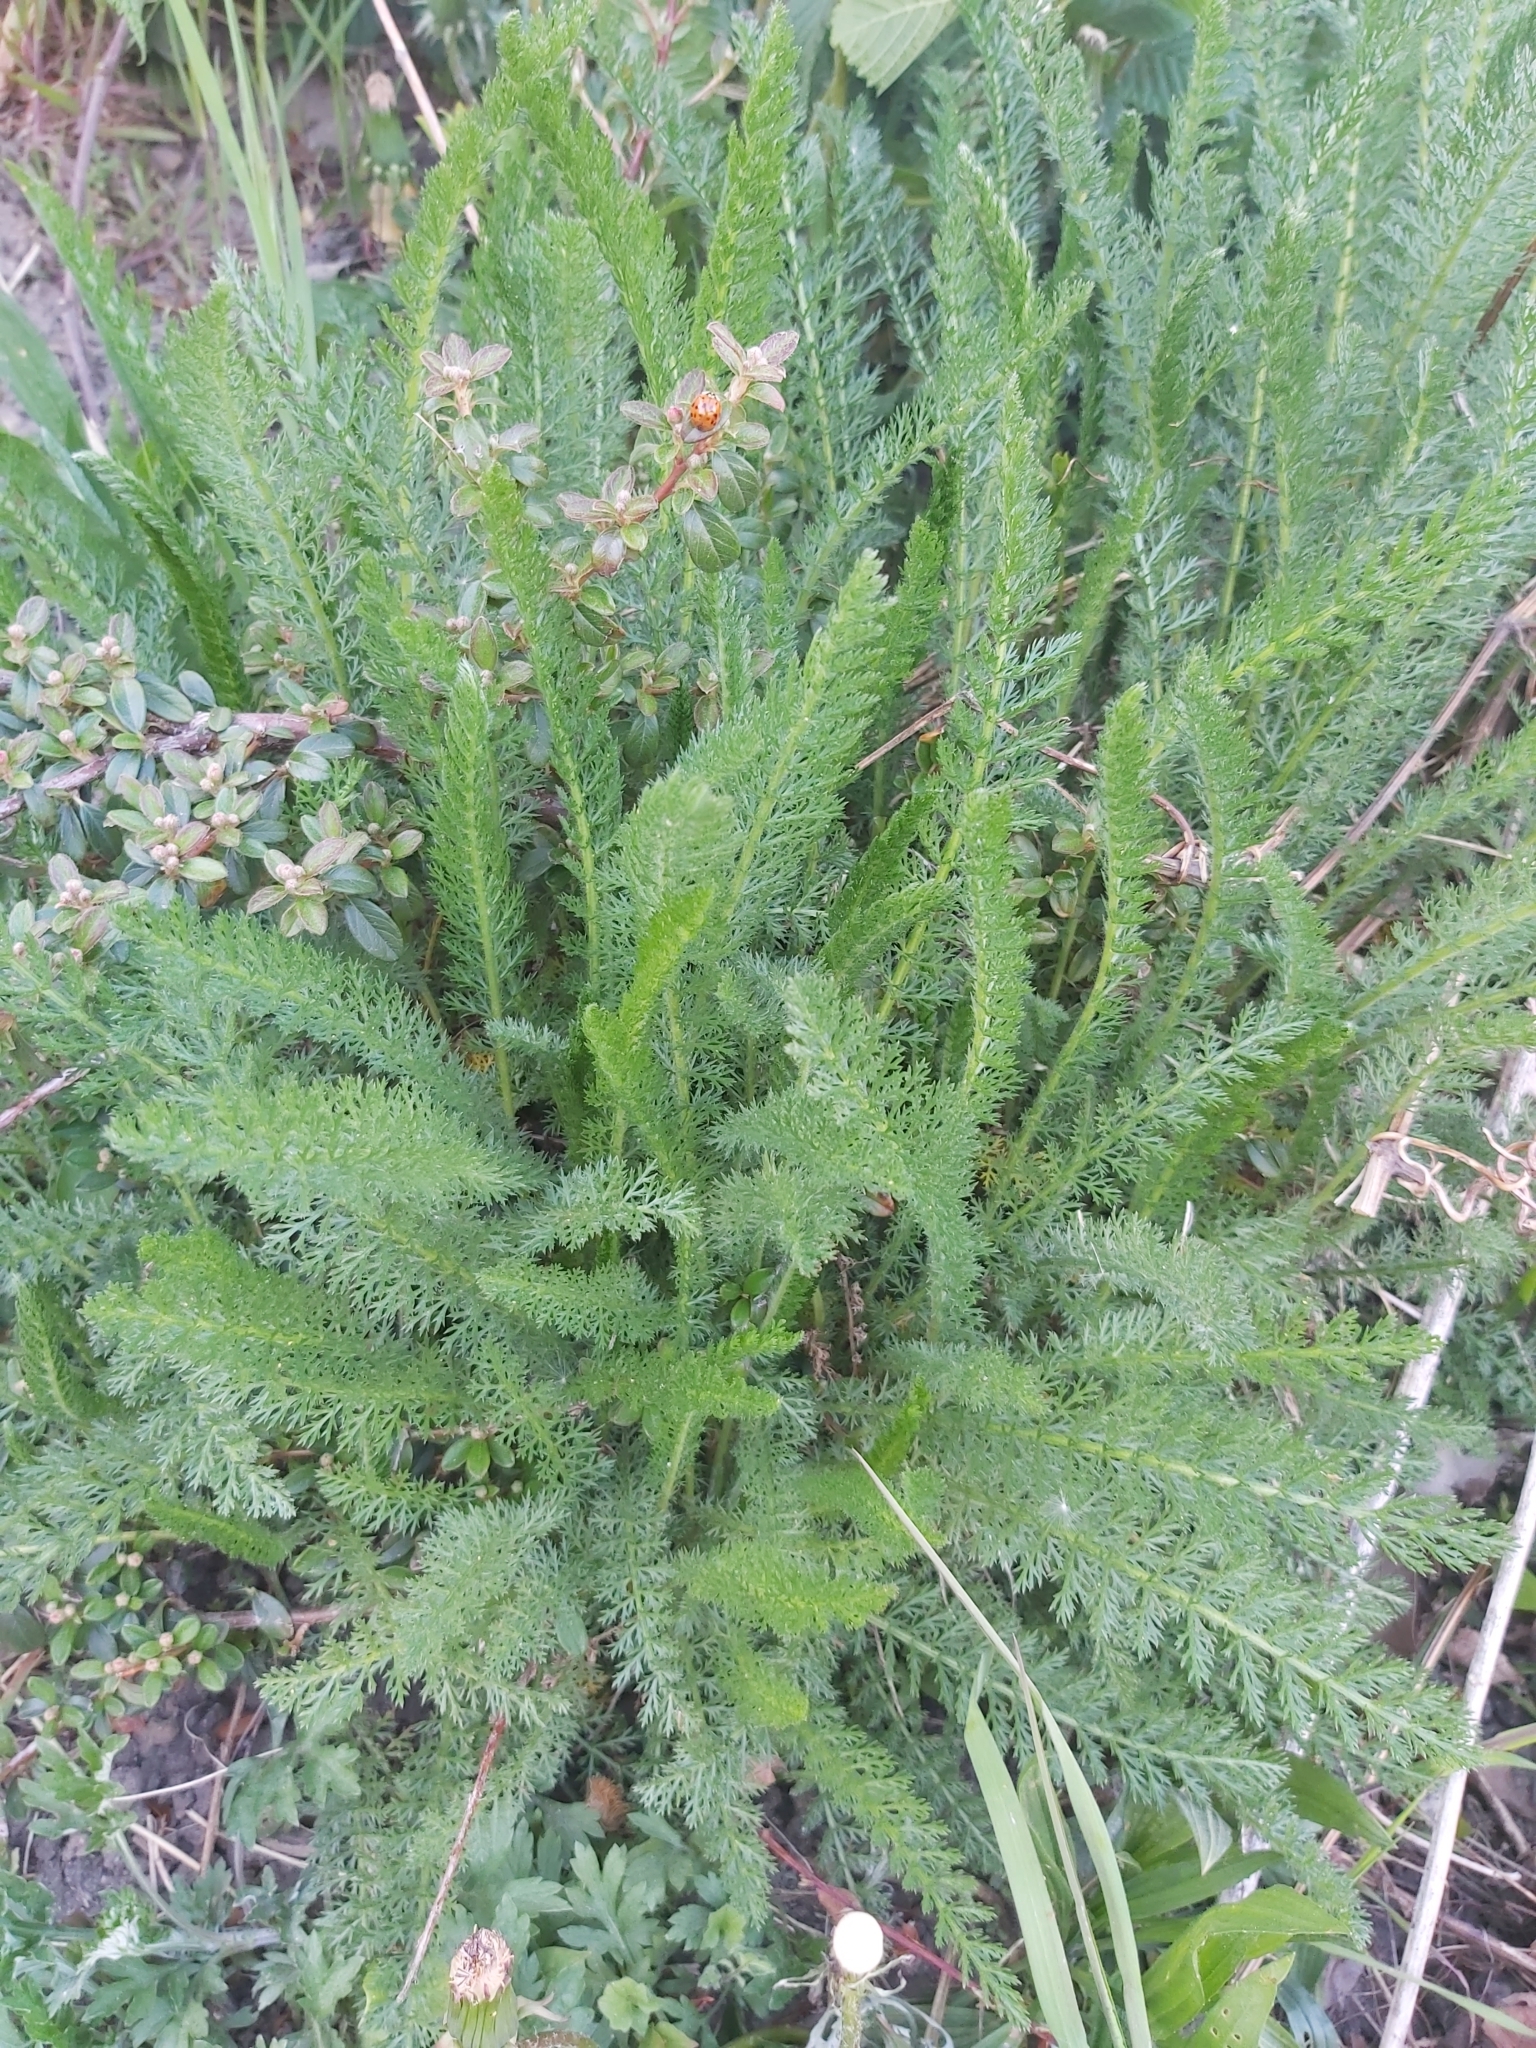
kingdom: Plantae
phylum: Tracheophyta
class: Magnoliopsida
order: Asterales
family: Asteraceae
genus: Achillea
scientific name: Achillea millefolium
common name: Yarrow
